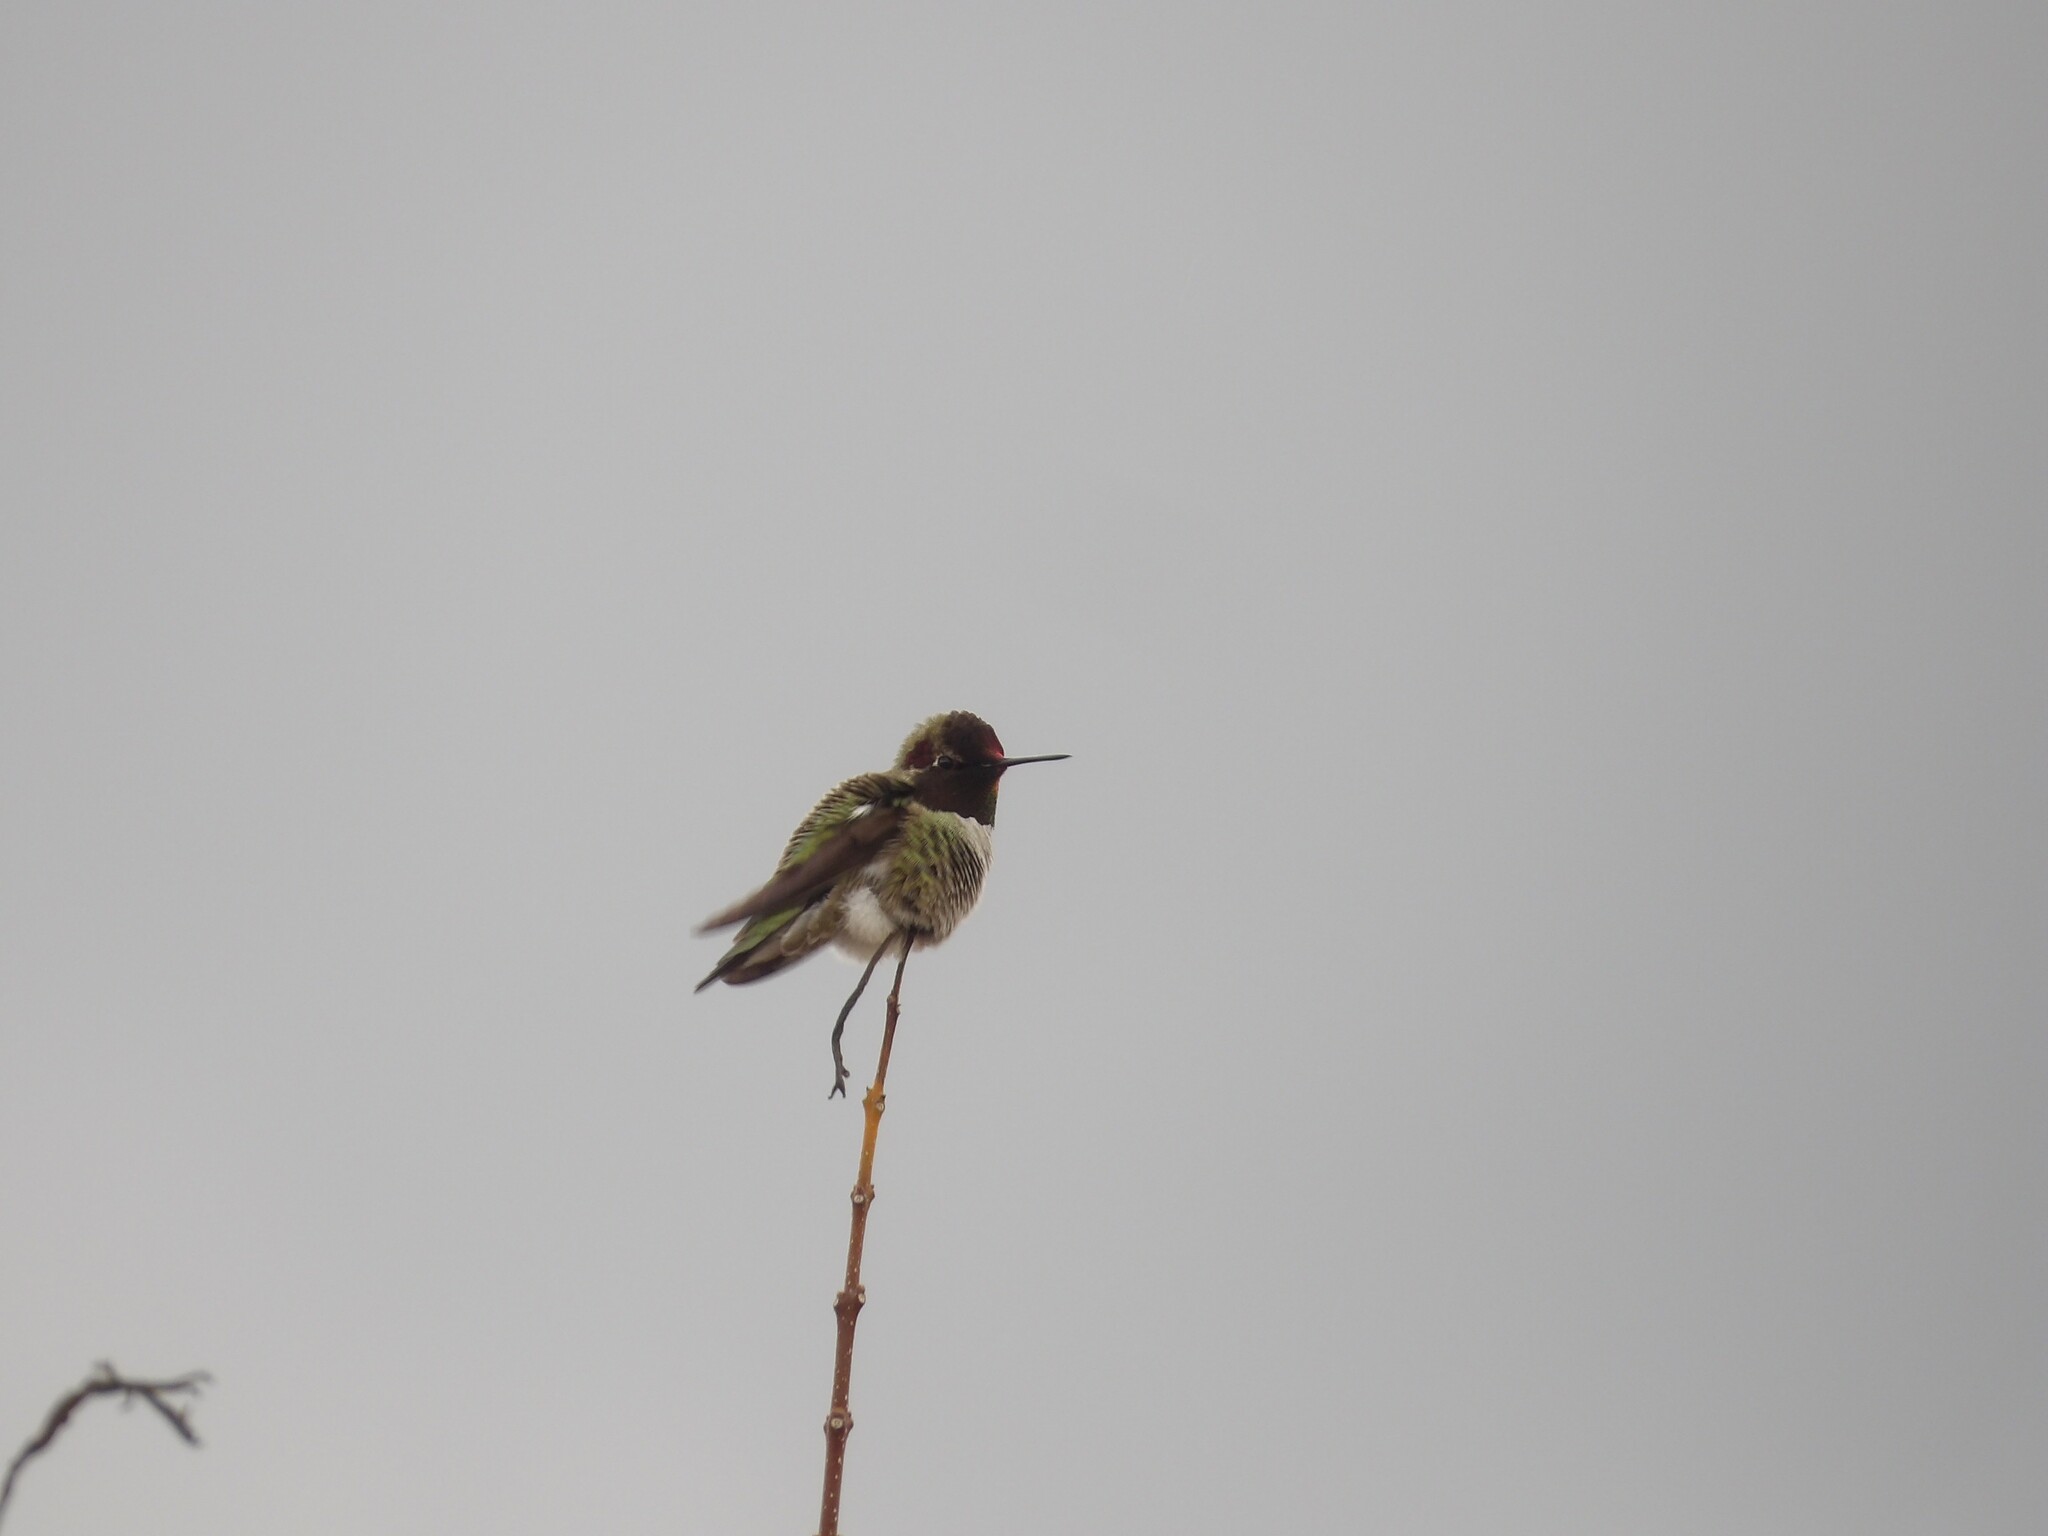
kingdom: Animalia
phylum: Chordata
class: Aves
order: Apodiformes
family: Trochilidae
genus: Calypte
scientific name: Calypte anna
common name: Anna's hummingbird
